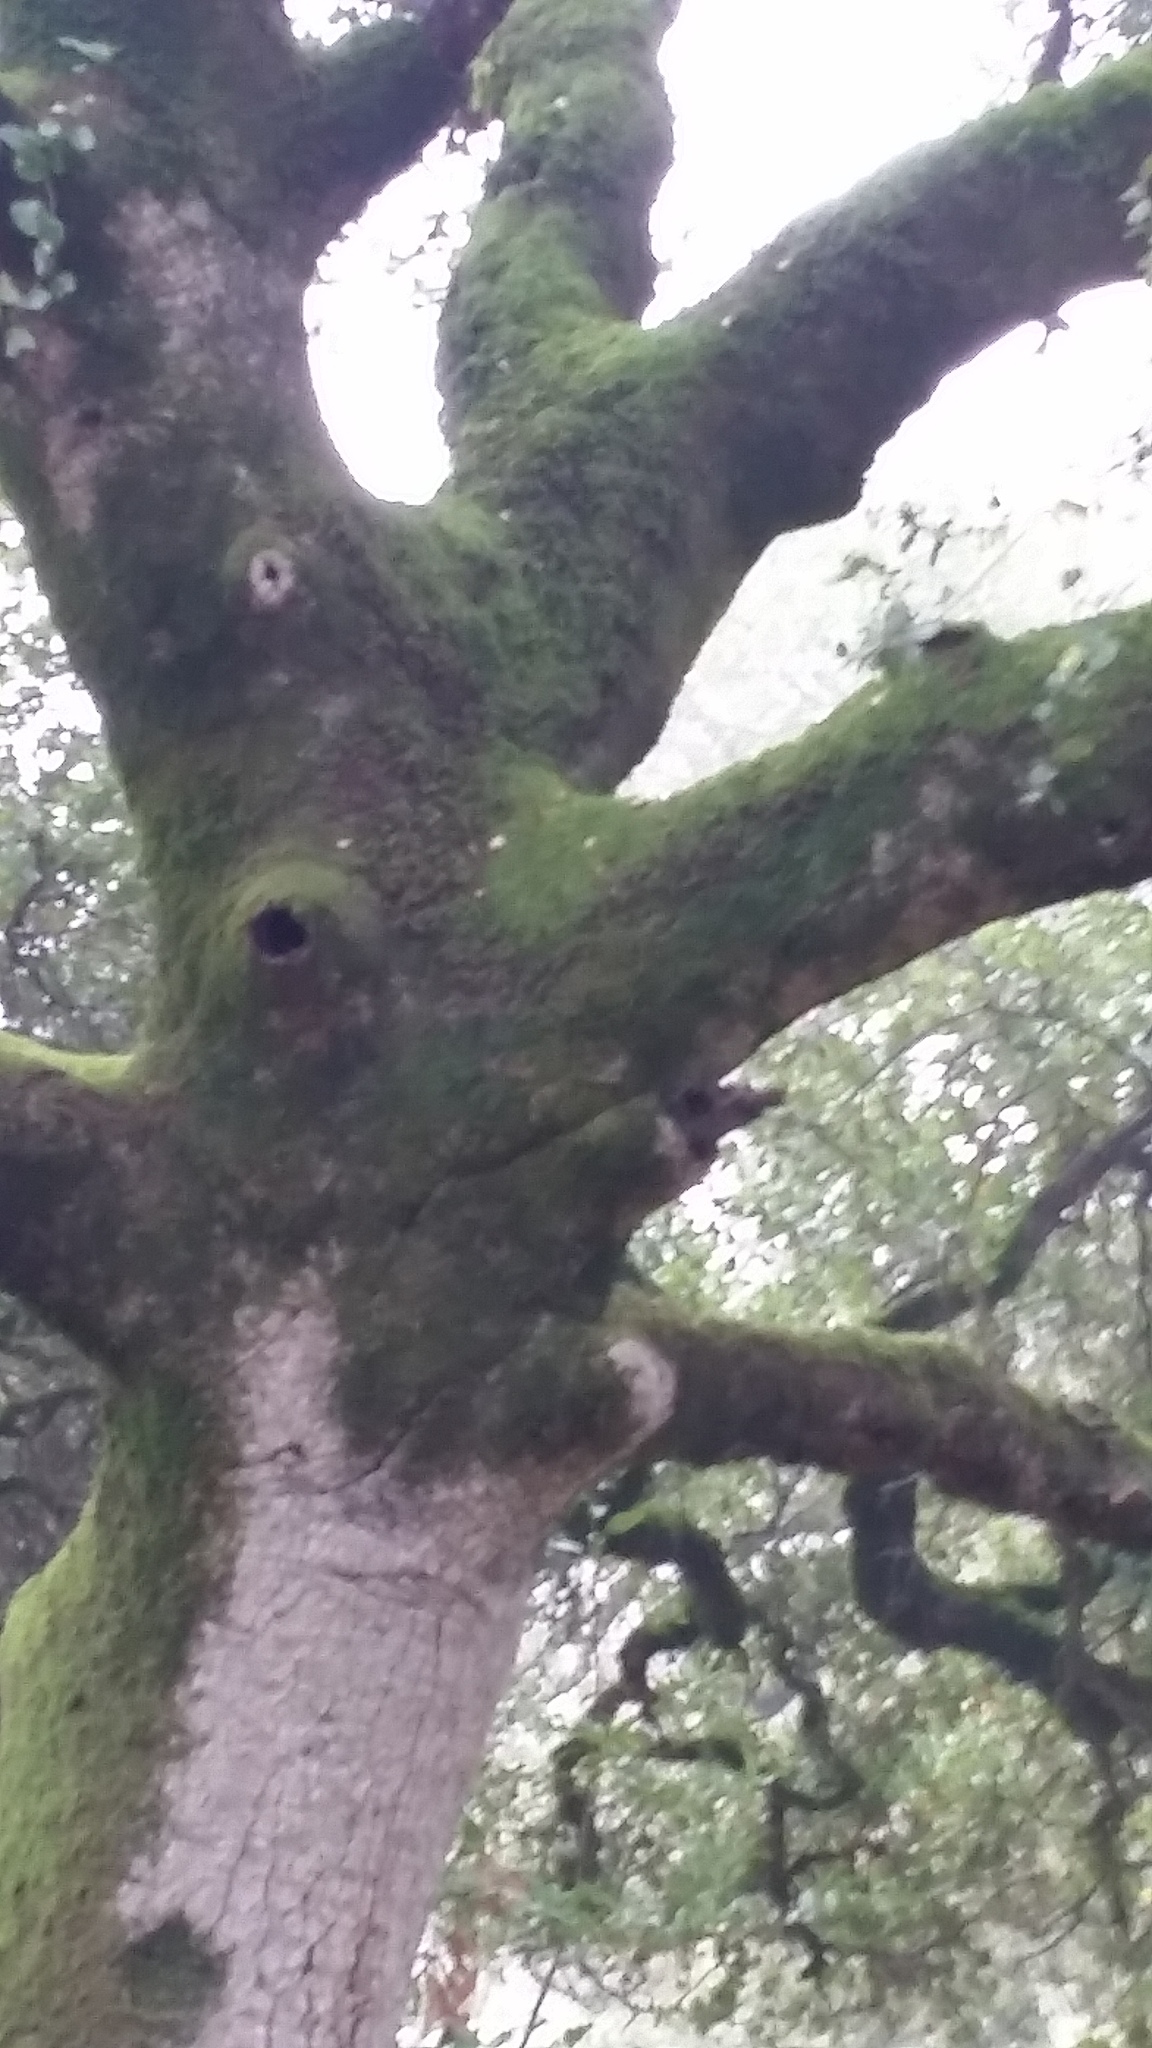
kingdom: Plantae
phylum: Tracheophyta
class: Magnoliopsida
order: Fagales
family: Fagaceae
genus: Quercus
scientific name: Quercus agrifolia
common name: California live oak
